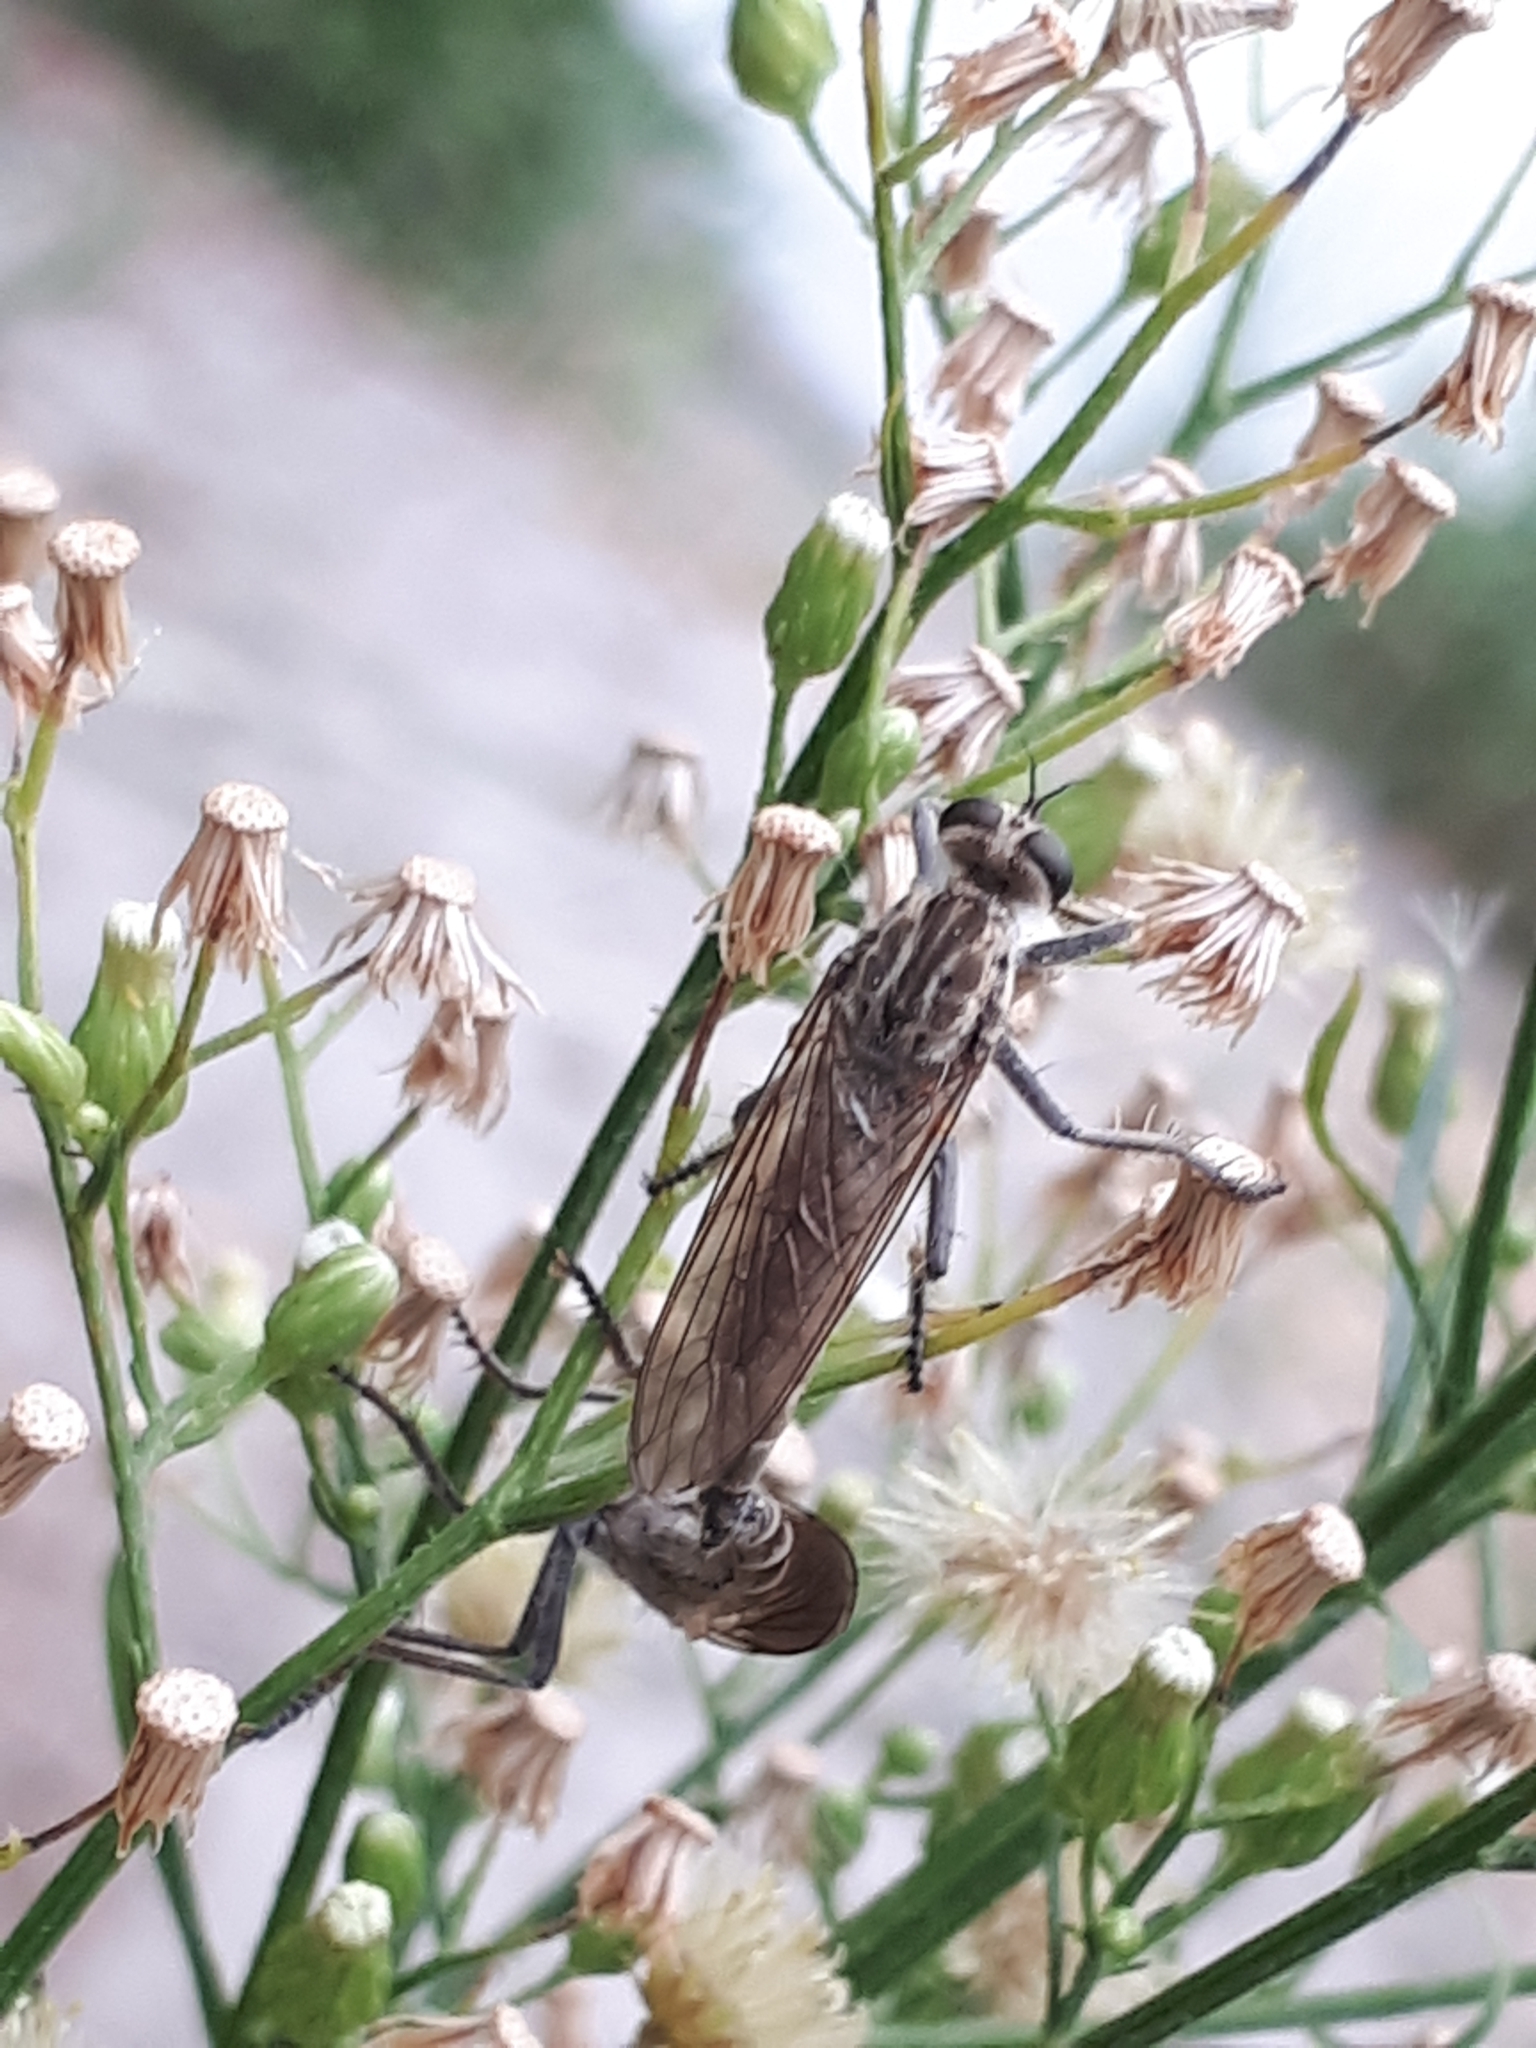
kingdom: Animalia
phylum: Arthropoda
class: Insecta
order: Diptera
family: Asilidae
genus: Philonicus
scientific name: Philonicus albiceps
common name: Dune robberfly
